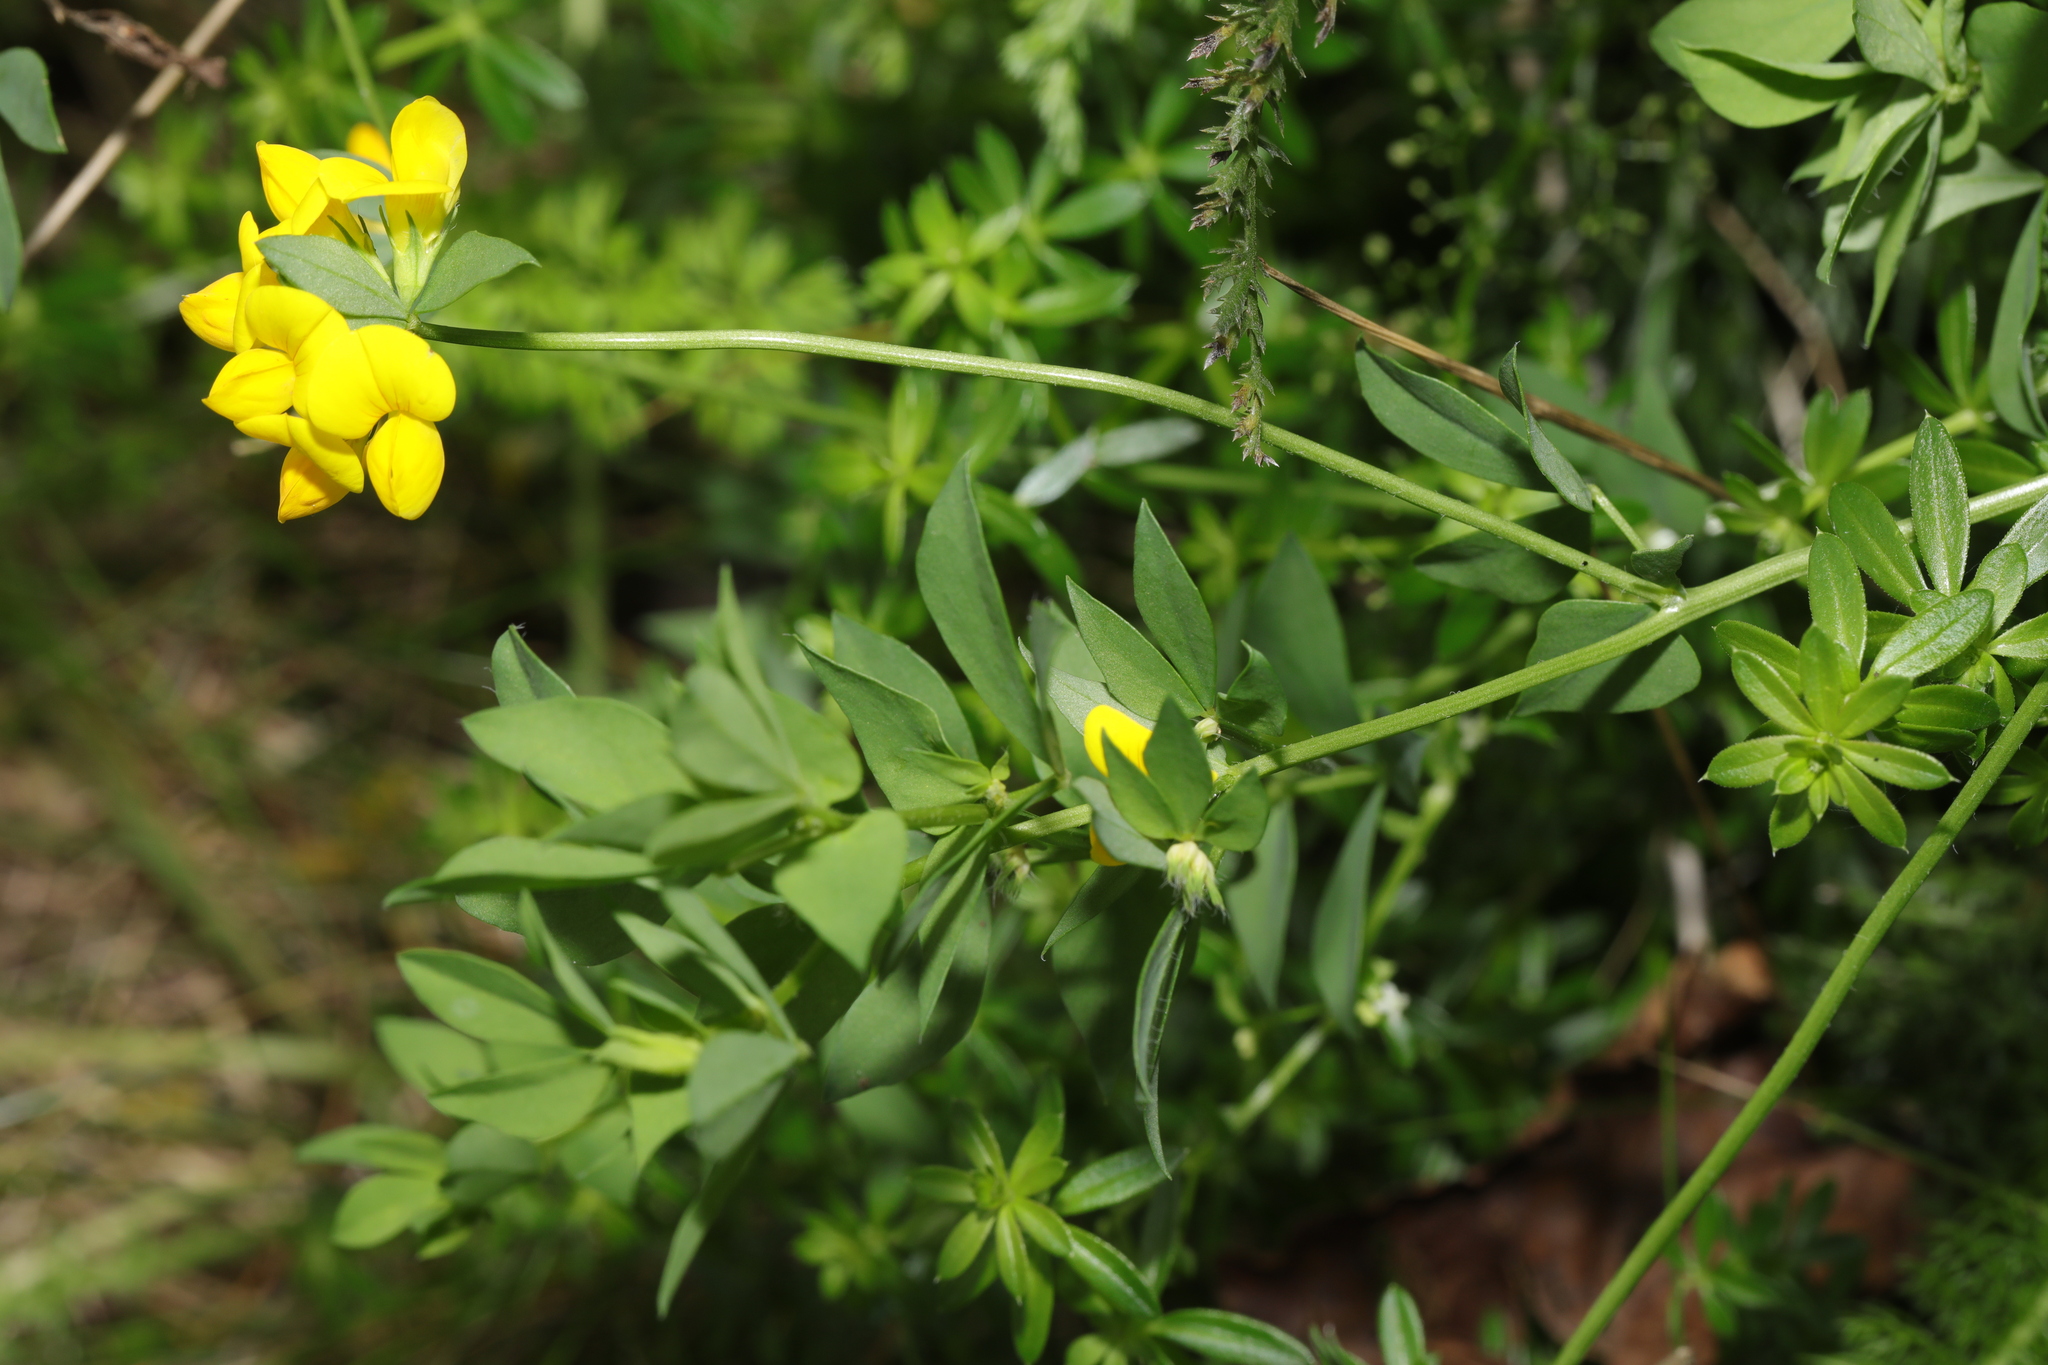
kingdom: Plantae
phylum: Tracheophyta
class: Magnoliopsida
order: Fabales
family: Fabaceae
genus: Lotus
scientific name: Lotus corniculatus
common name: Common bird's-foot-trefoil
